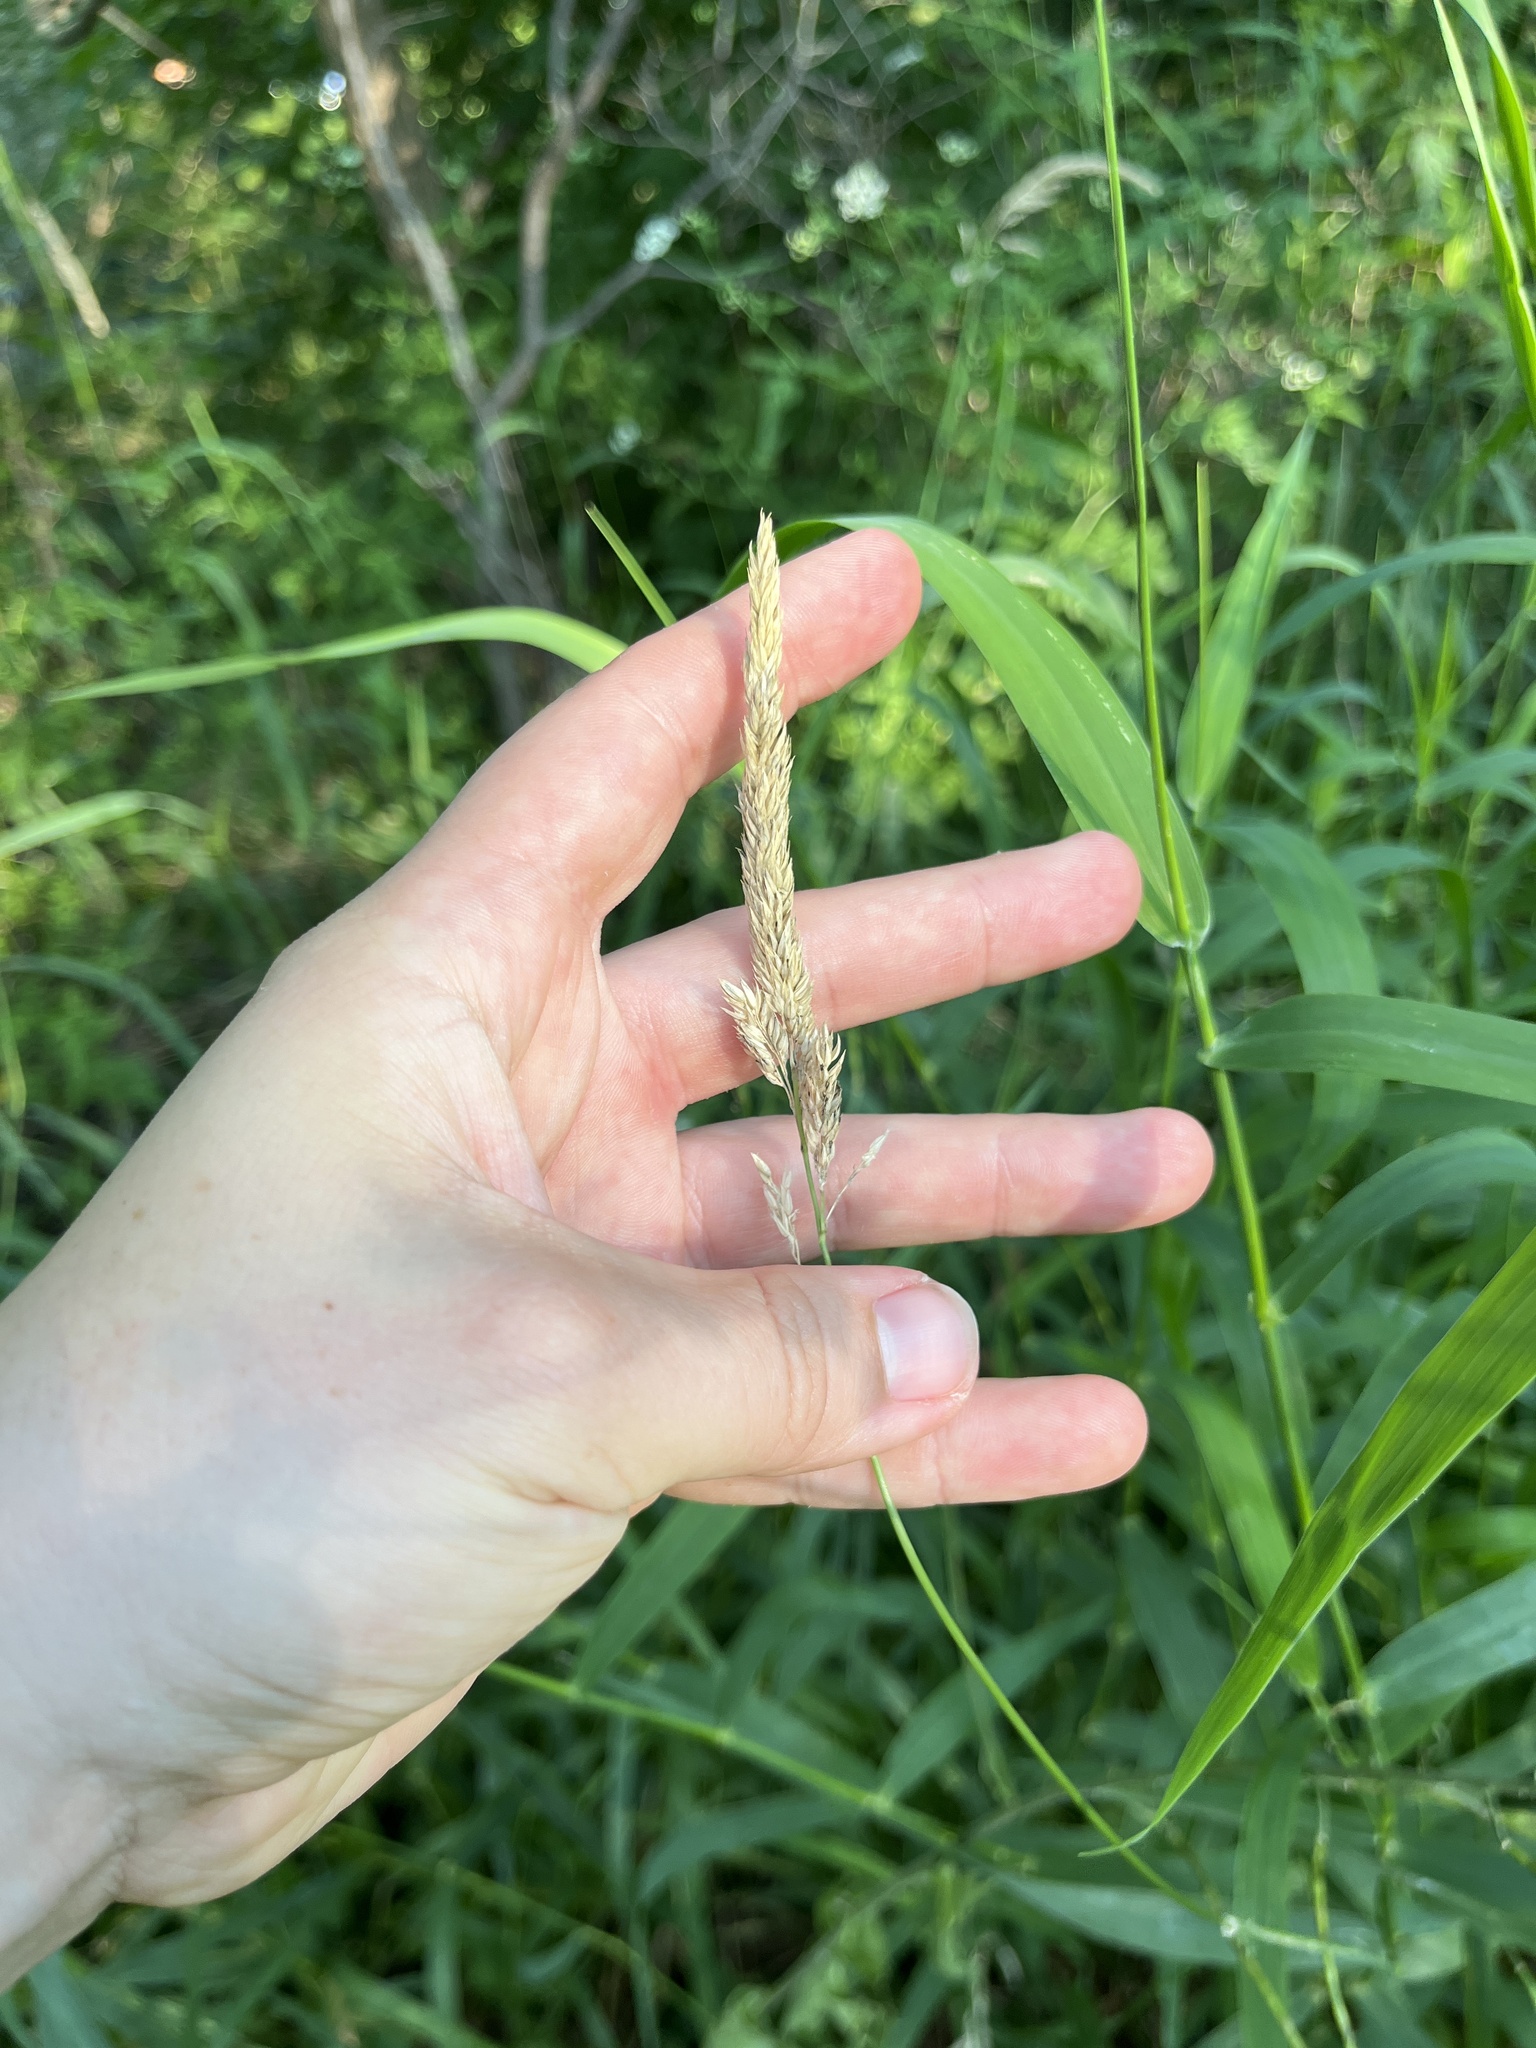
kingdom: Plantae
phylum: Tracheophyta
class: Liliopsida
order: Poales
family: Poaceae
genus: Phalaris
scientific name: Phalaris arundinacea
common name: Reed canary-grass
